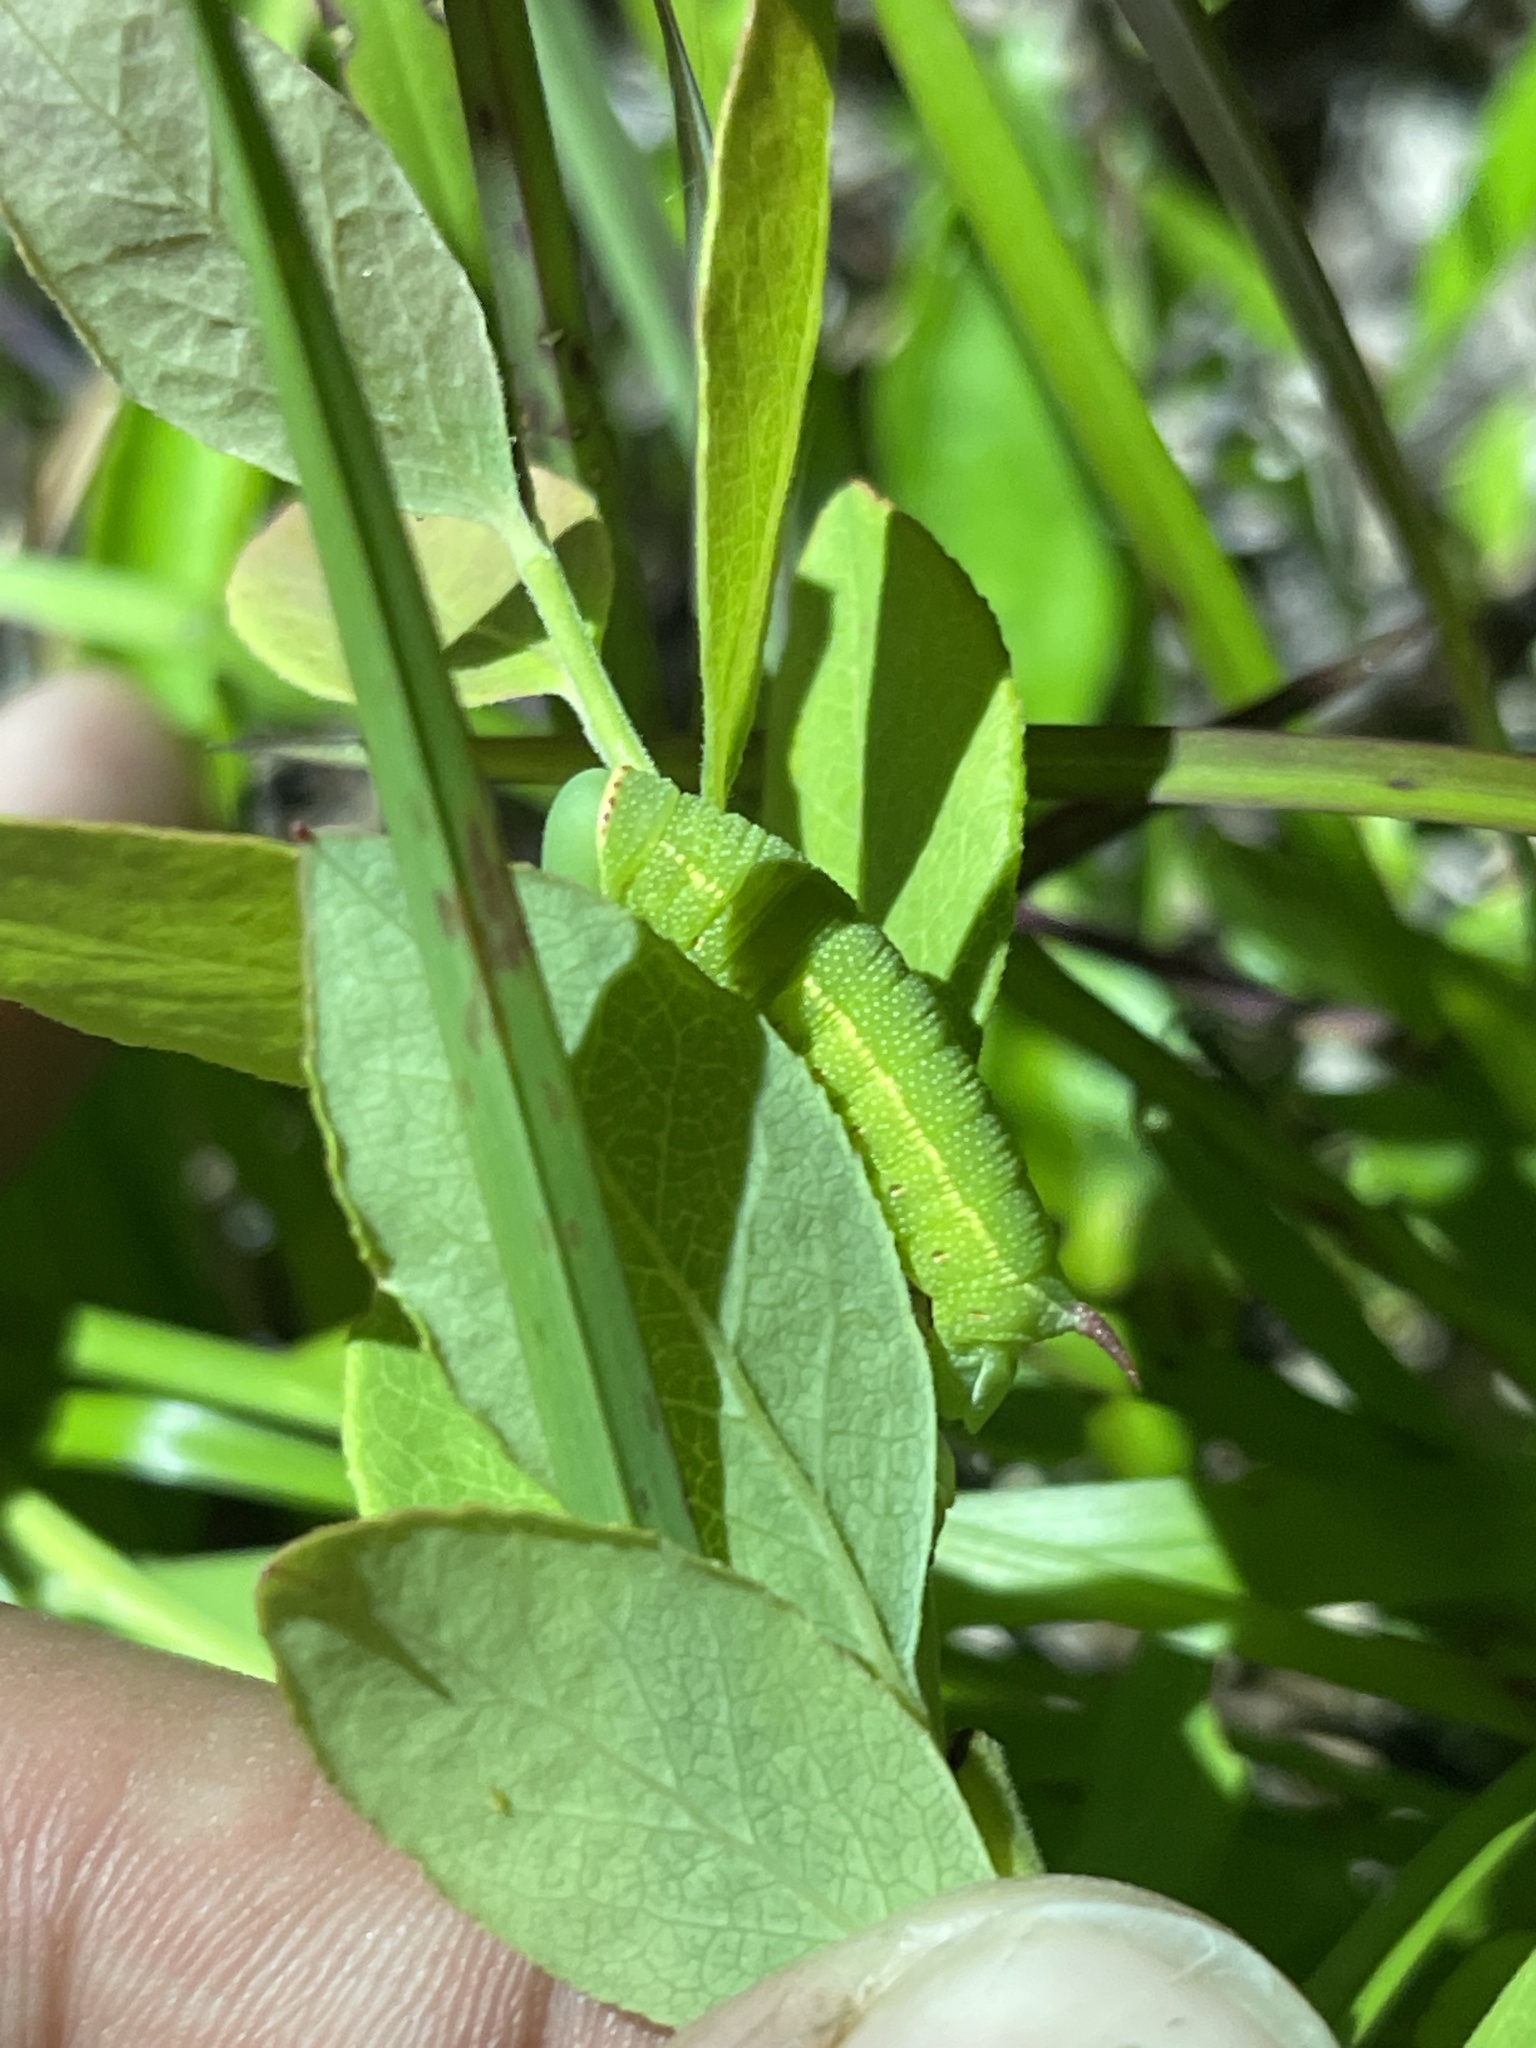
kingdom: Animalia
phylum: Arthropoda
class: Insecta
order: Lepidoptera
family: Sphingidae
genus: Hemaris
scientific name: Hemaris gracilis
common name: Graceful clearwing
